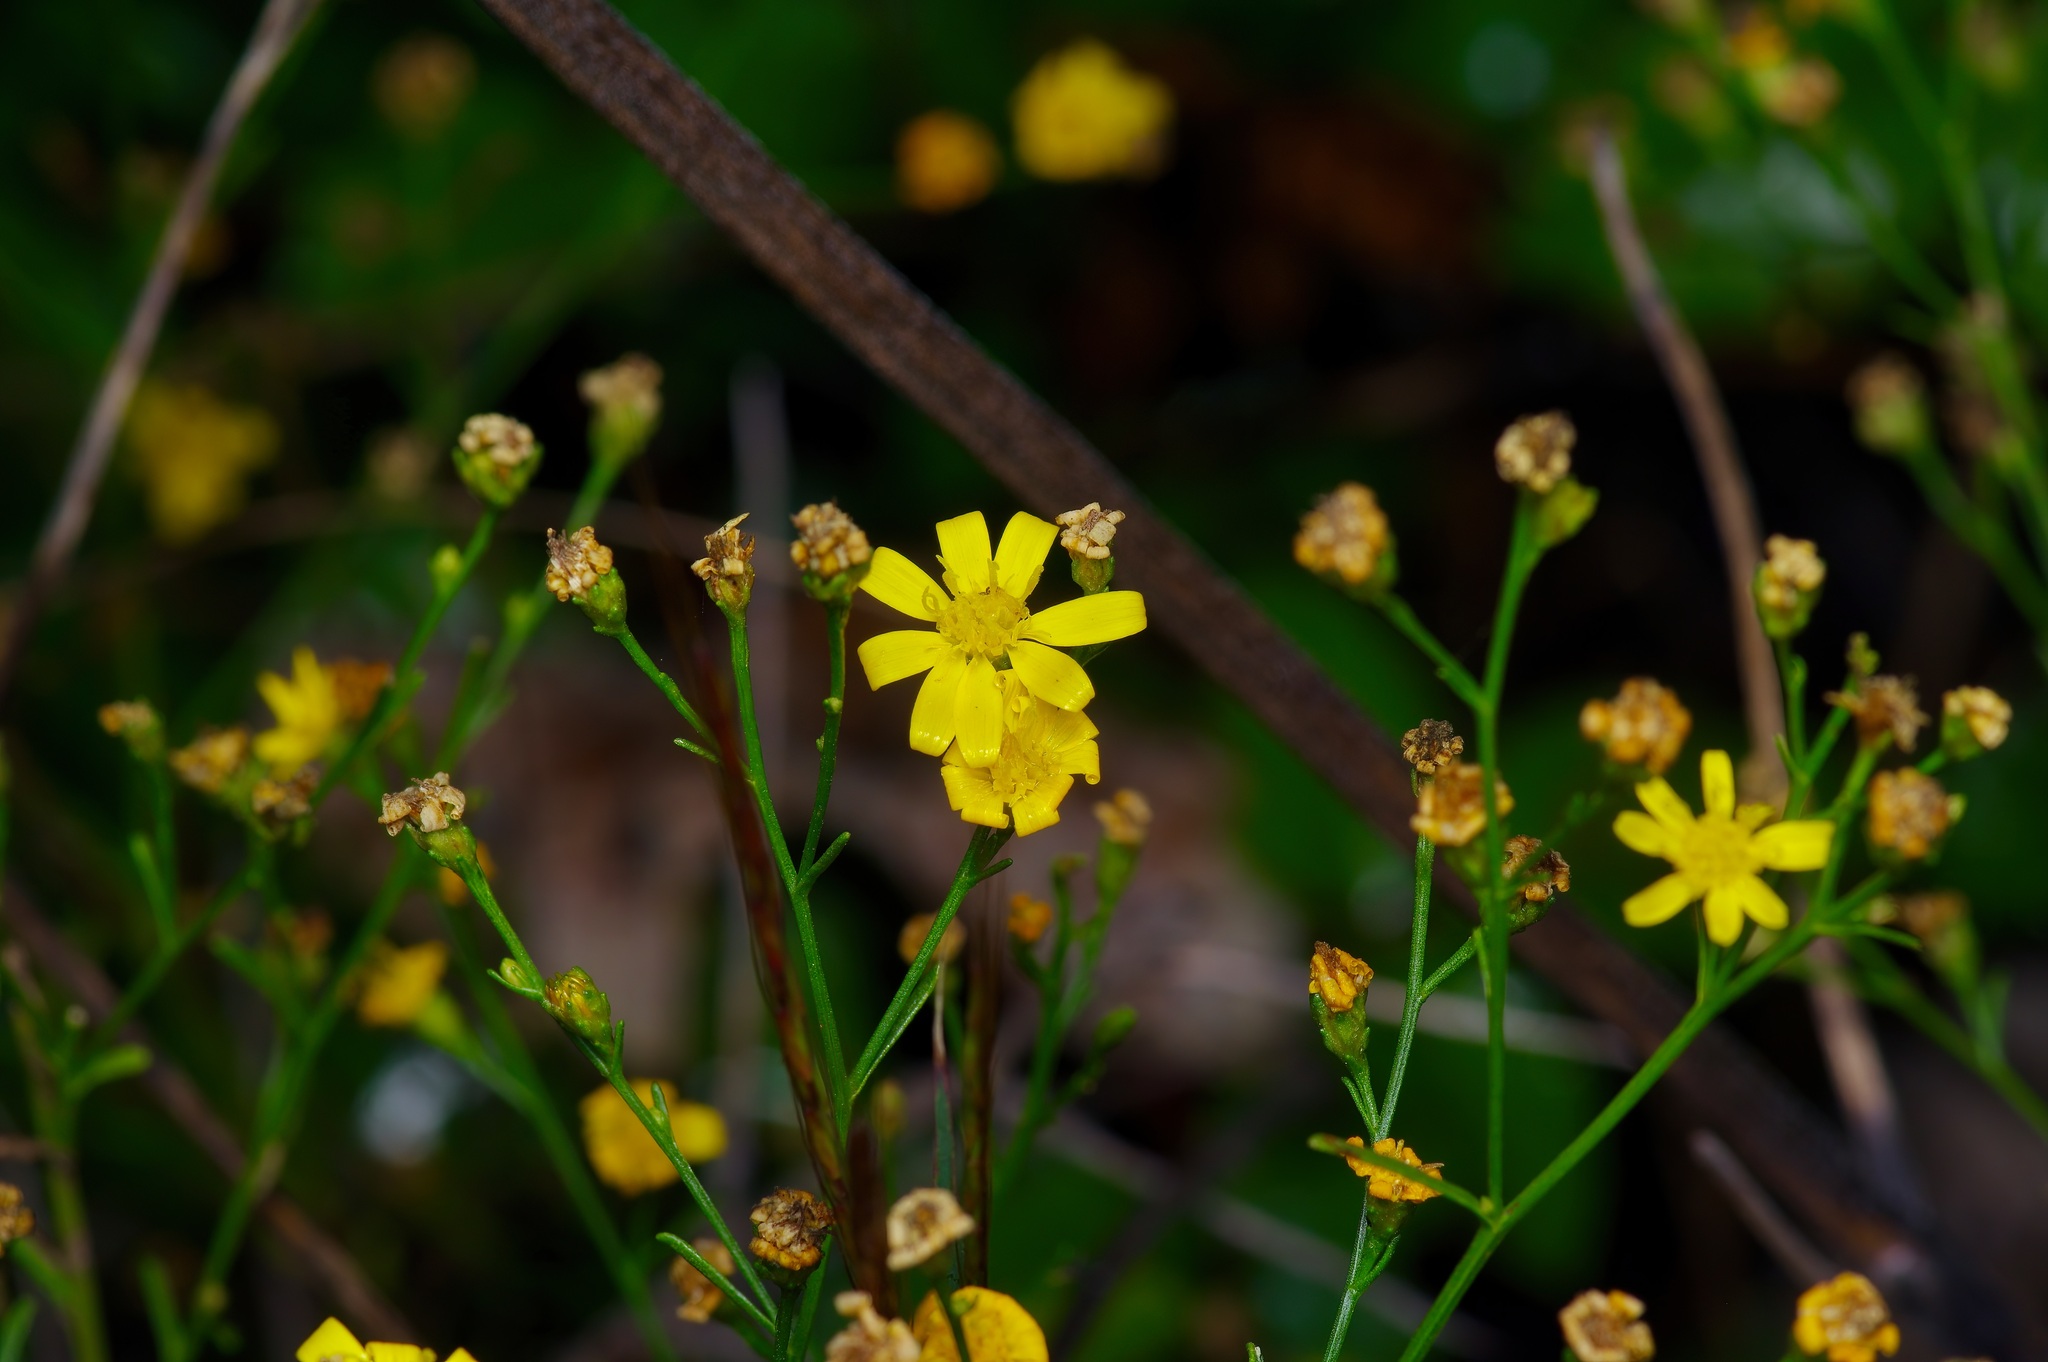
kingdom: Plantae
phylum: Tracheophyta
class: Magnoliopsida
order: Asterales
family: Asteraceae
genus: Gutierrezia
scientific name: Gutierrezia texana
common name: Texas snakeweed
